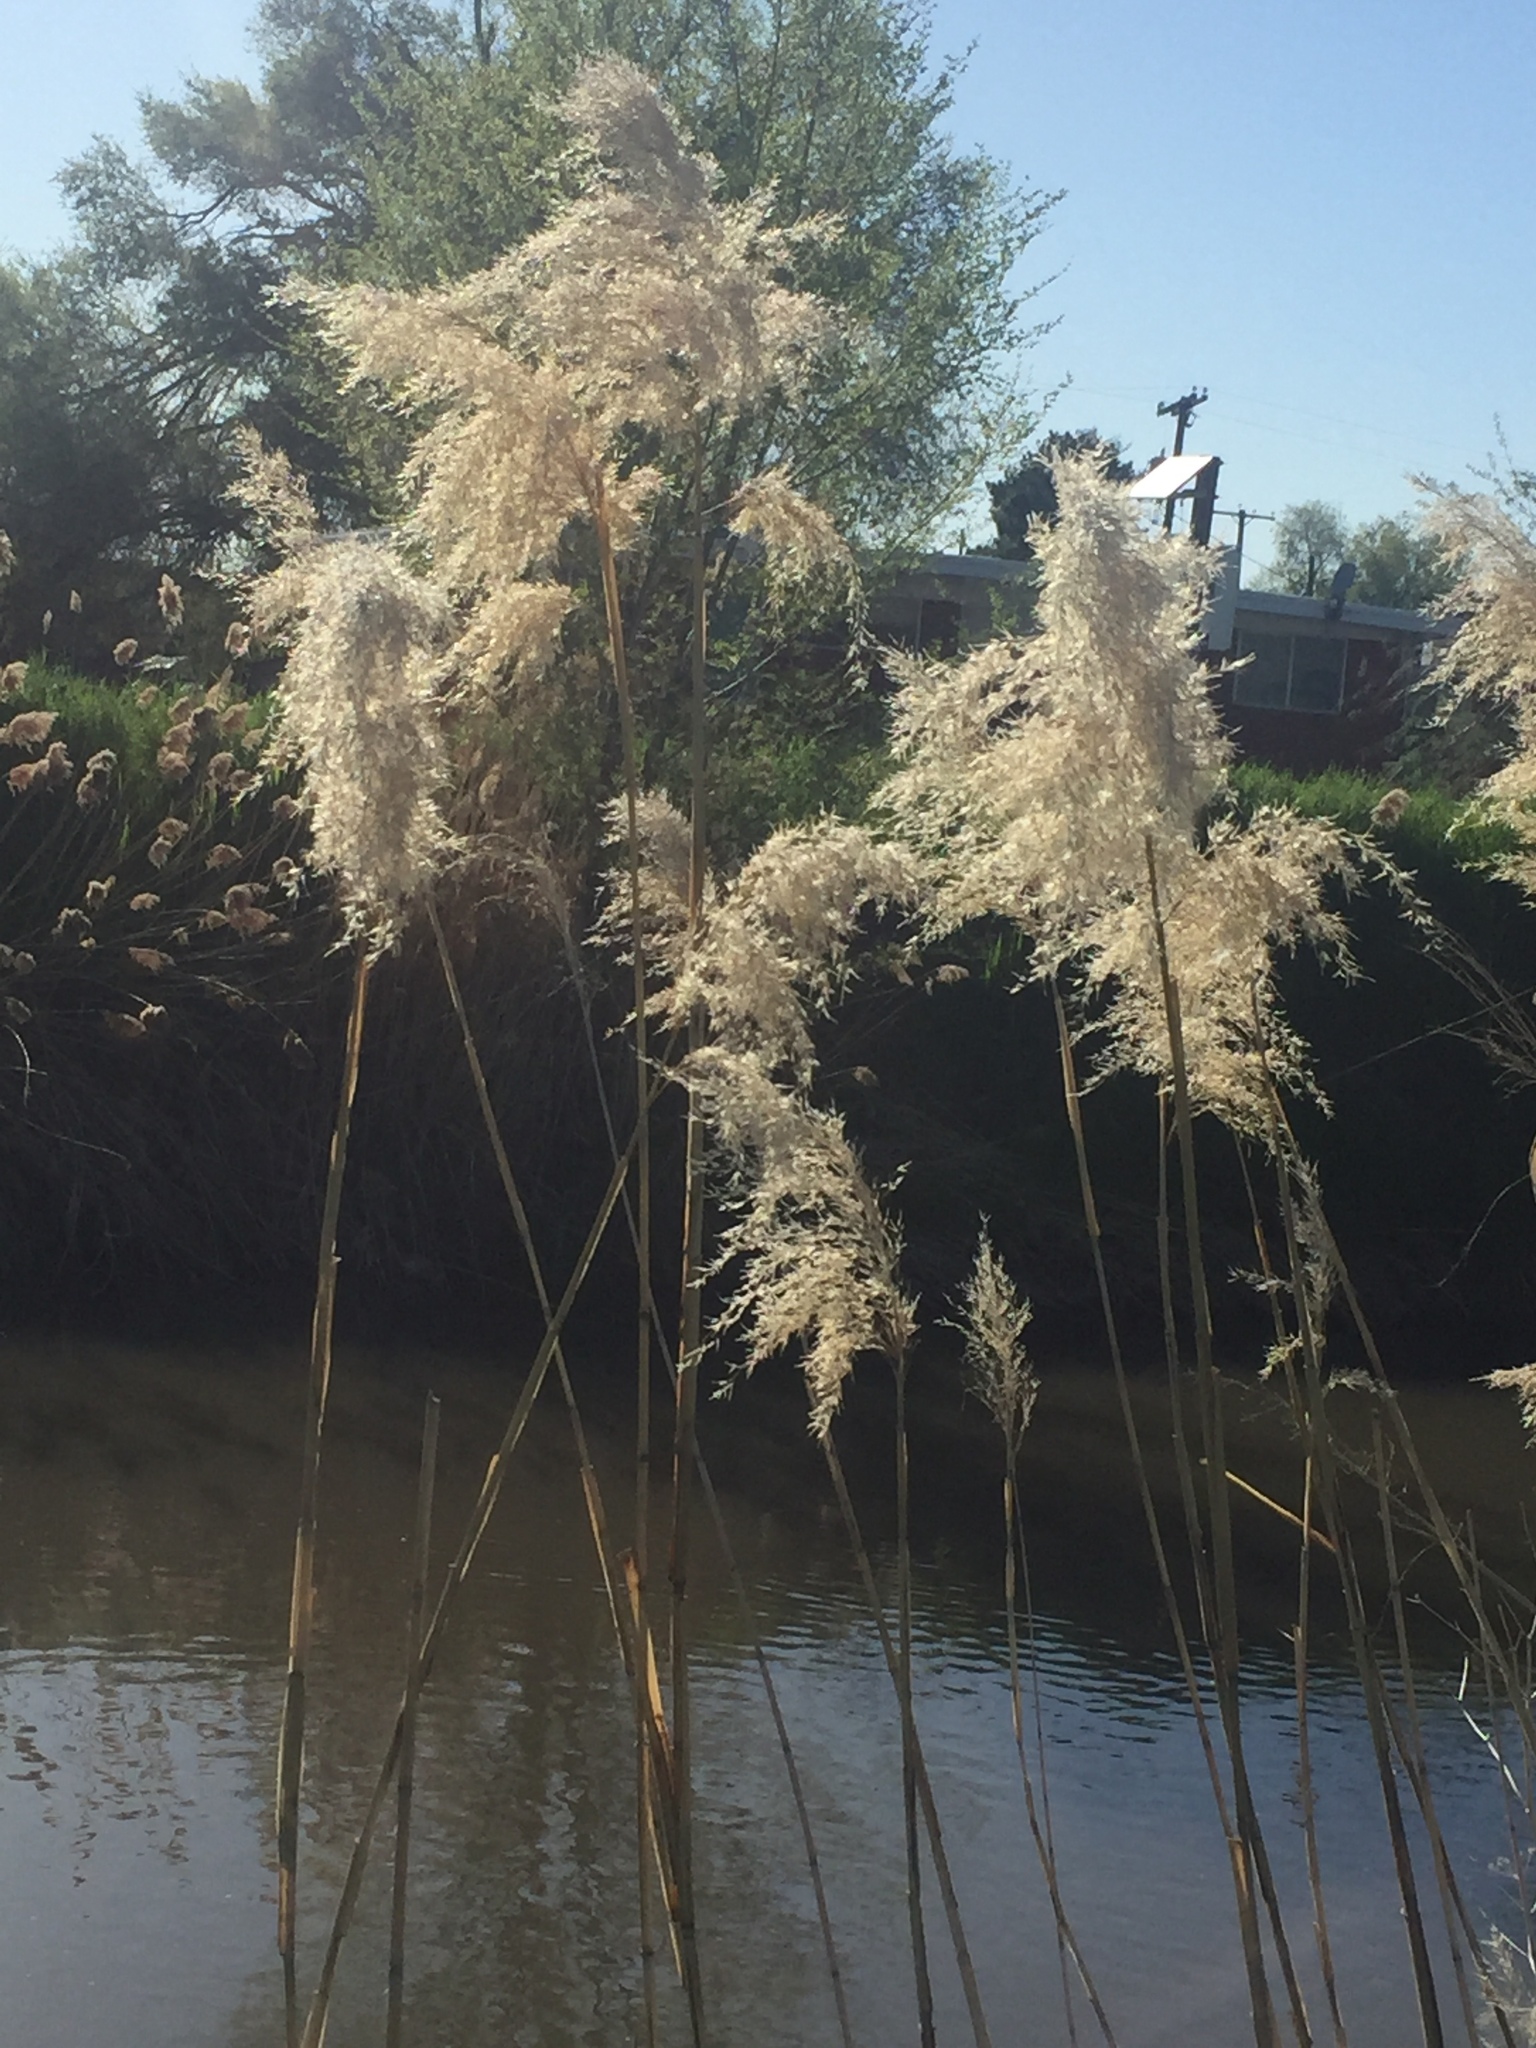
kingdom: Plantae
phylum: Tracheophyta
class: Liliopsida
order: Poales
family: Poaceae
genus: Phragmites
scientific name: Phragmites australis
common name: Common reed
